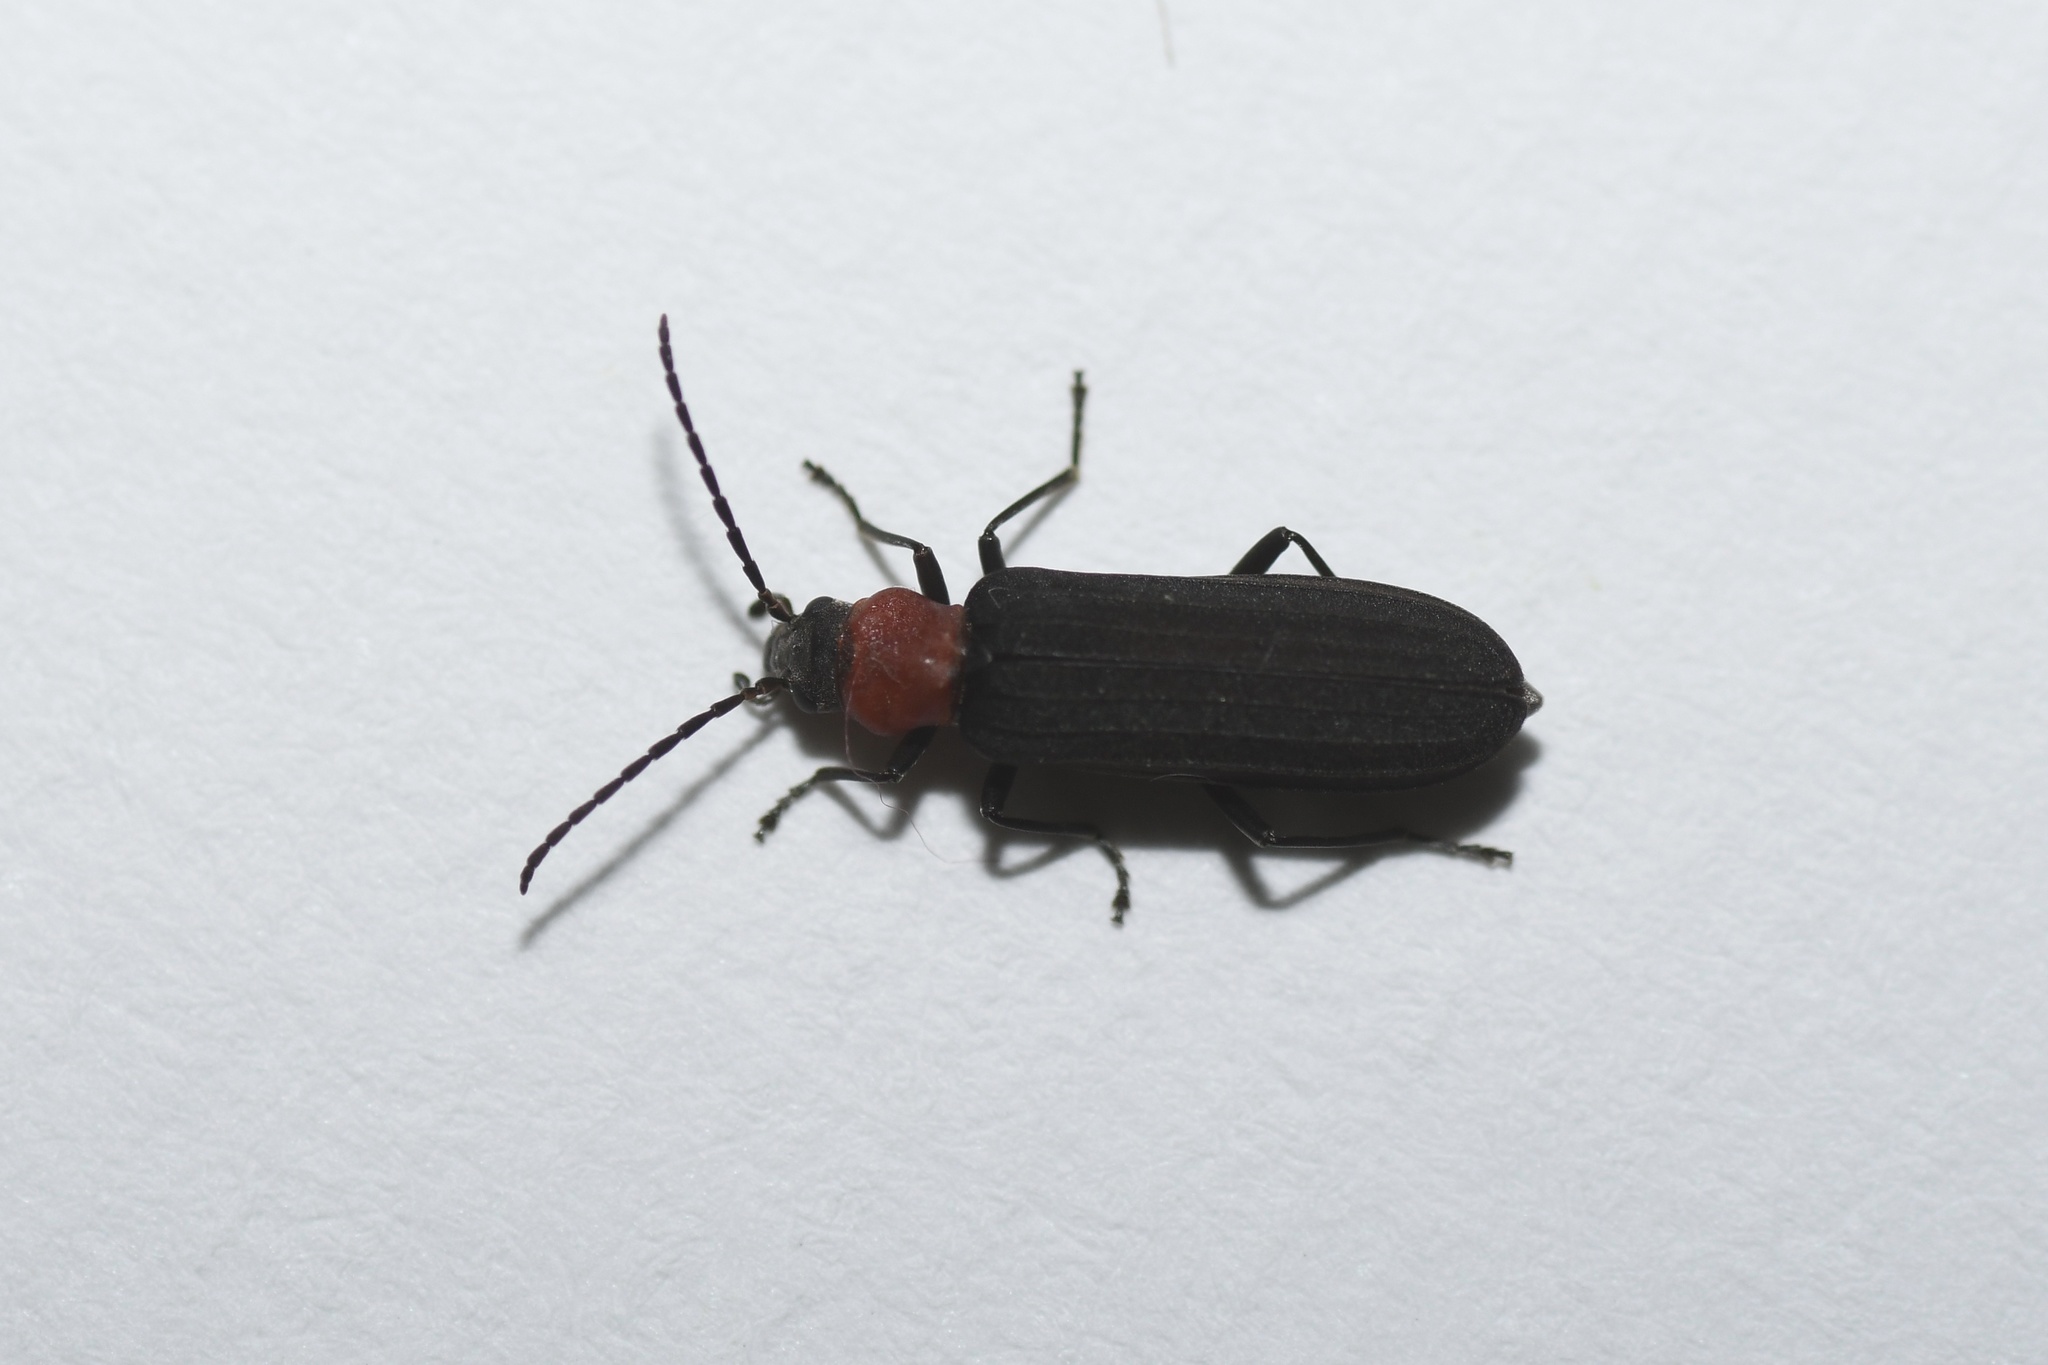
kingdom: Animalia
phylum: Arthropoda
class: Insecta
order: Coleoptera
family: Oedemeridae
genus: Ischnomera
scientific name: Ischnomera
